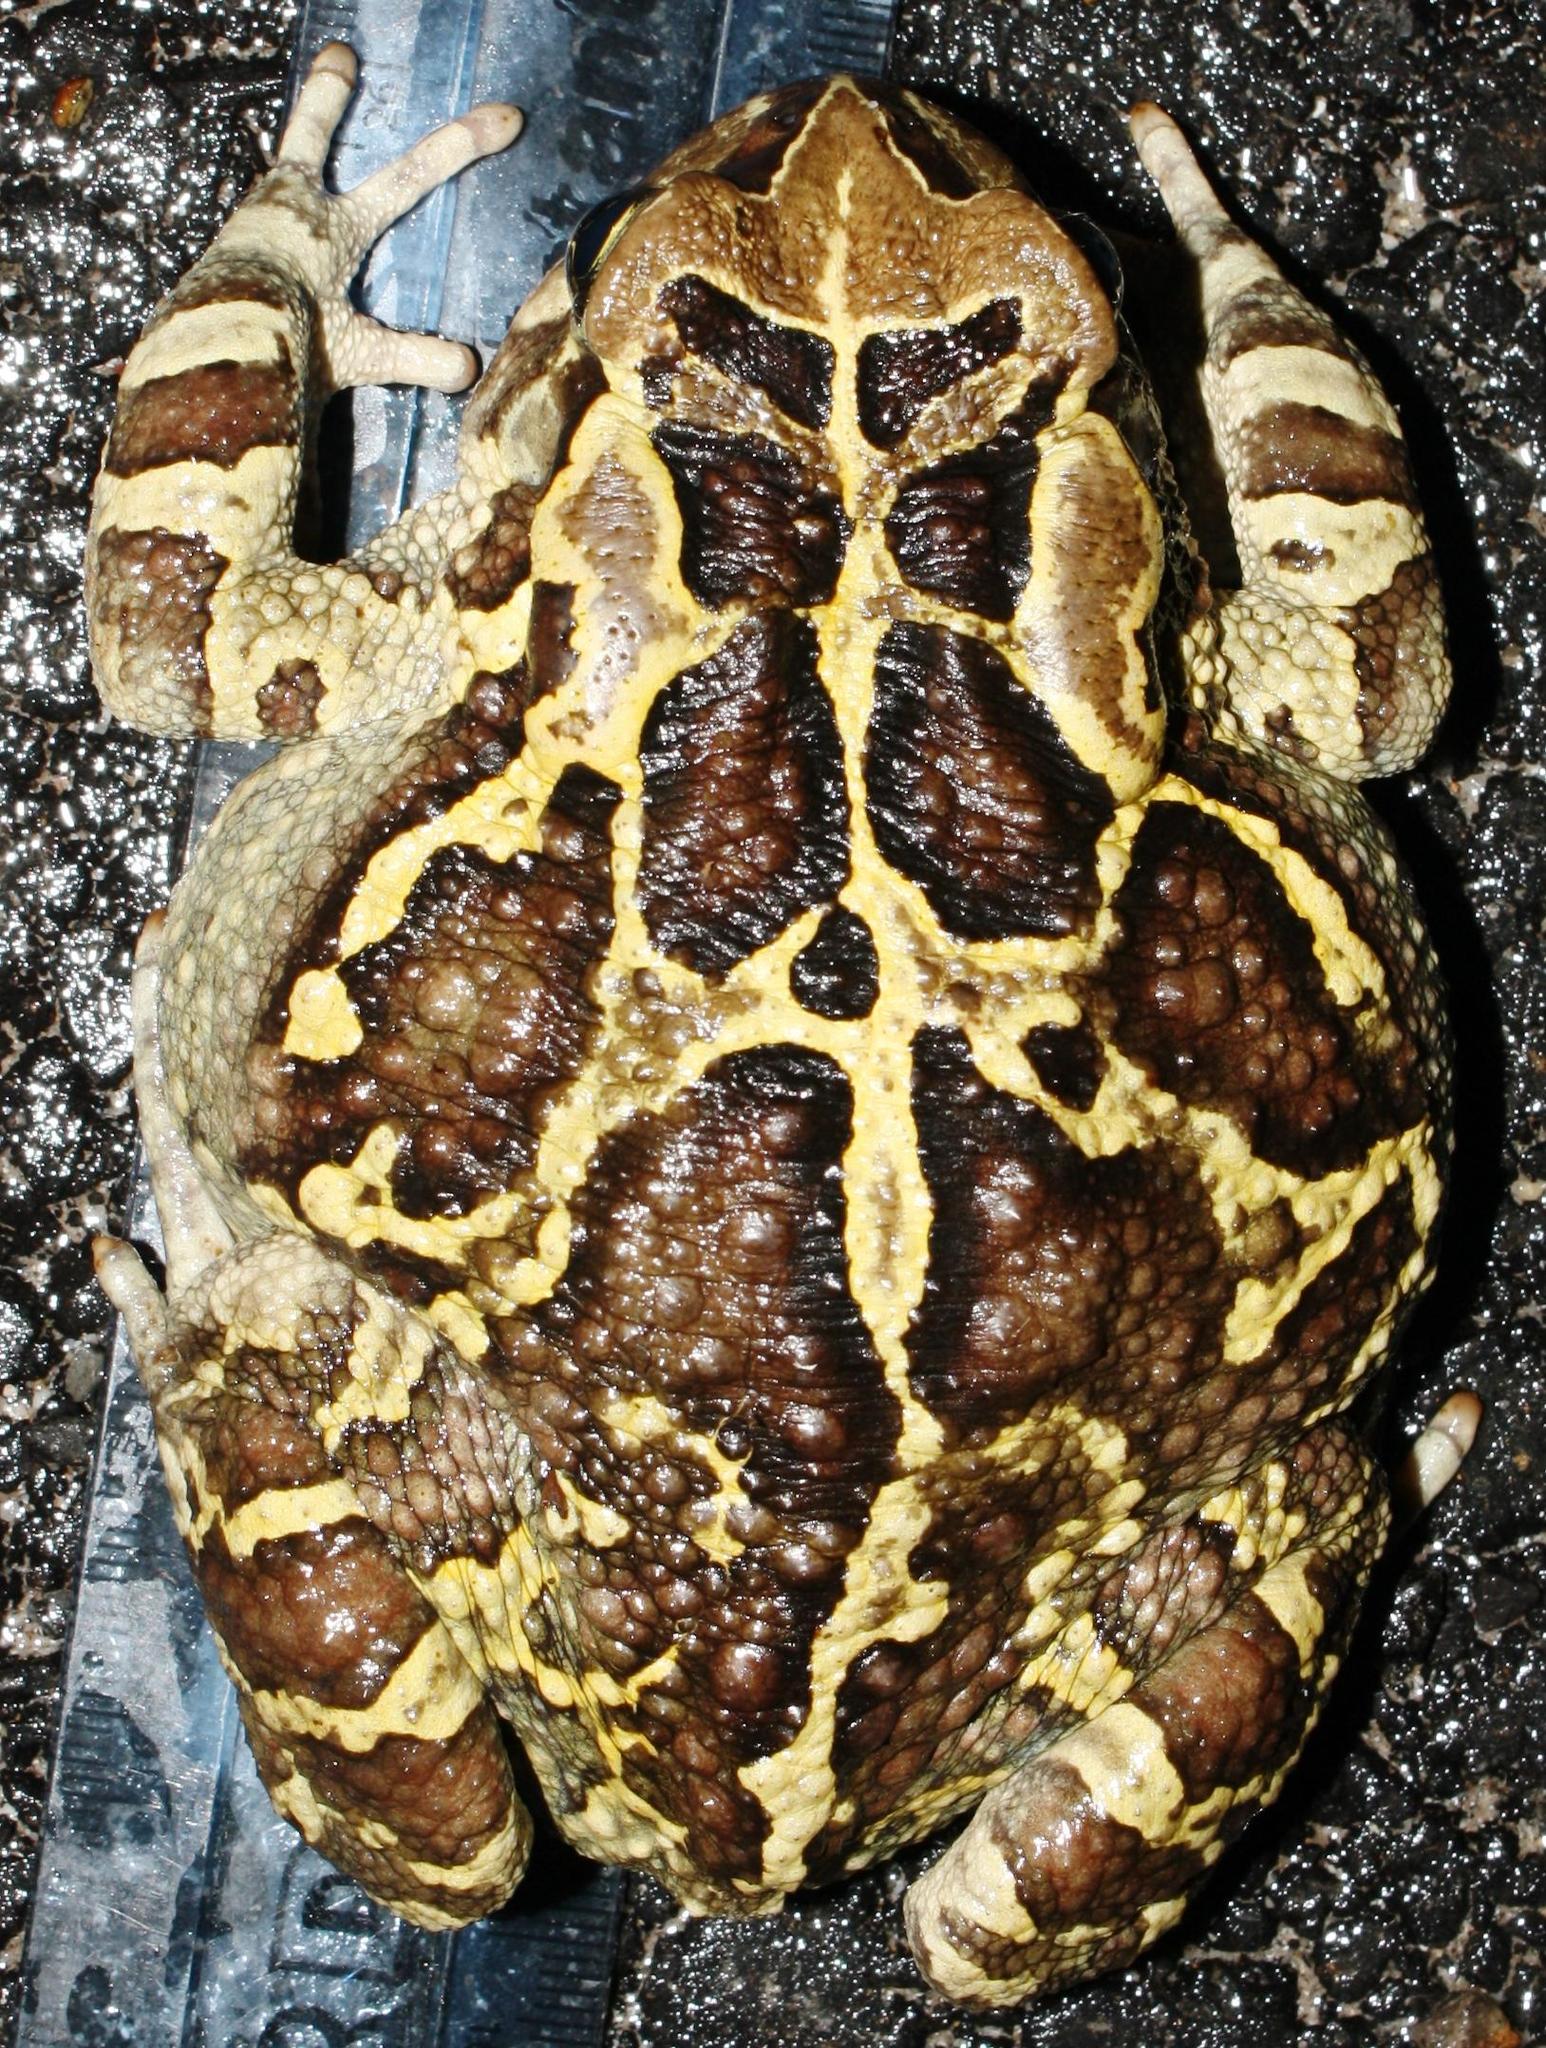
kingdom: Animalia
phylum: Chordata
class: Amphibia
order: Anura
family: Bufonidae
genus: Sclerophrys
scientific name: Sclerophrys pantherina
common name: Panther toad
